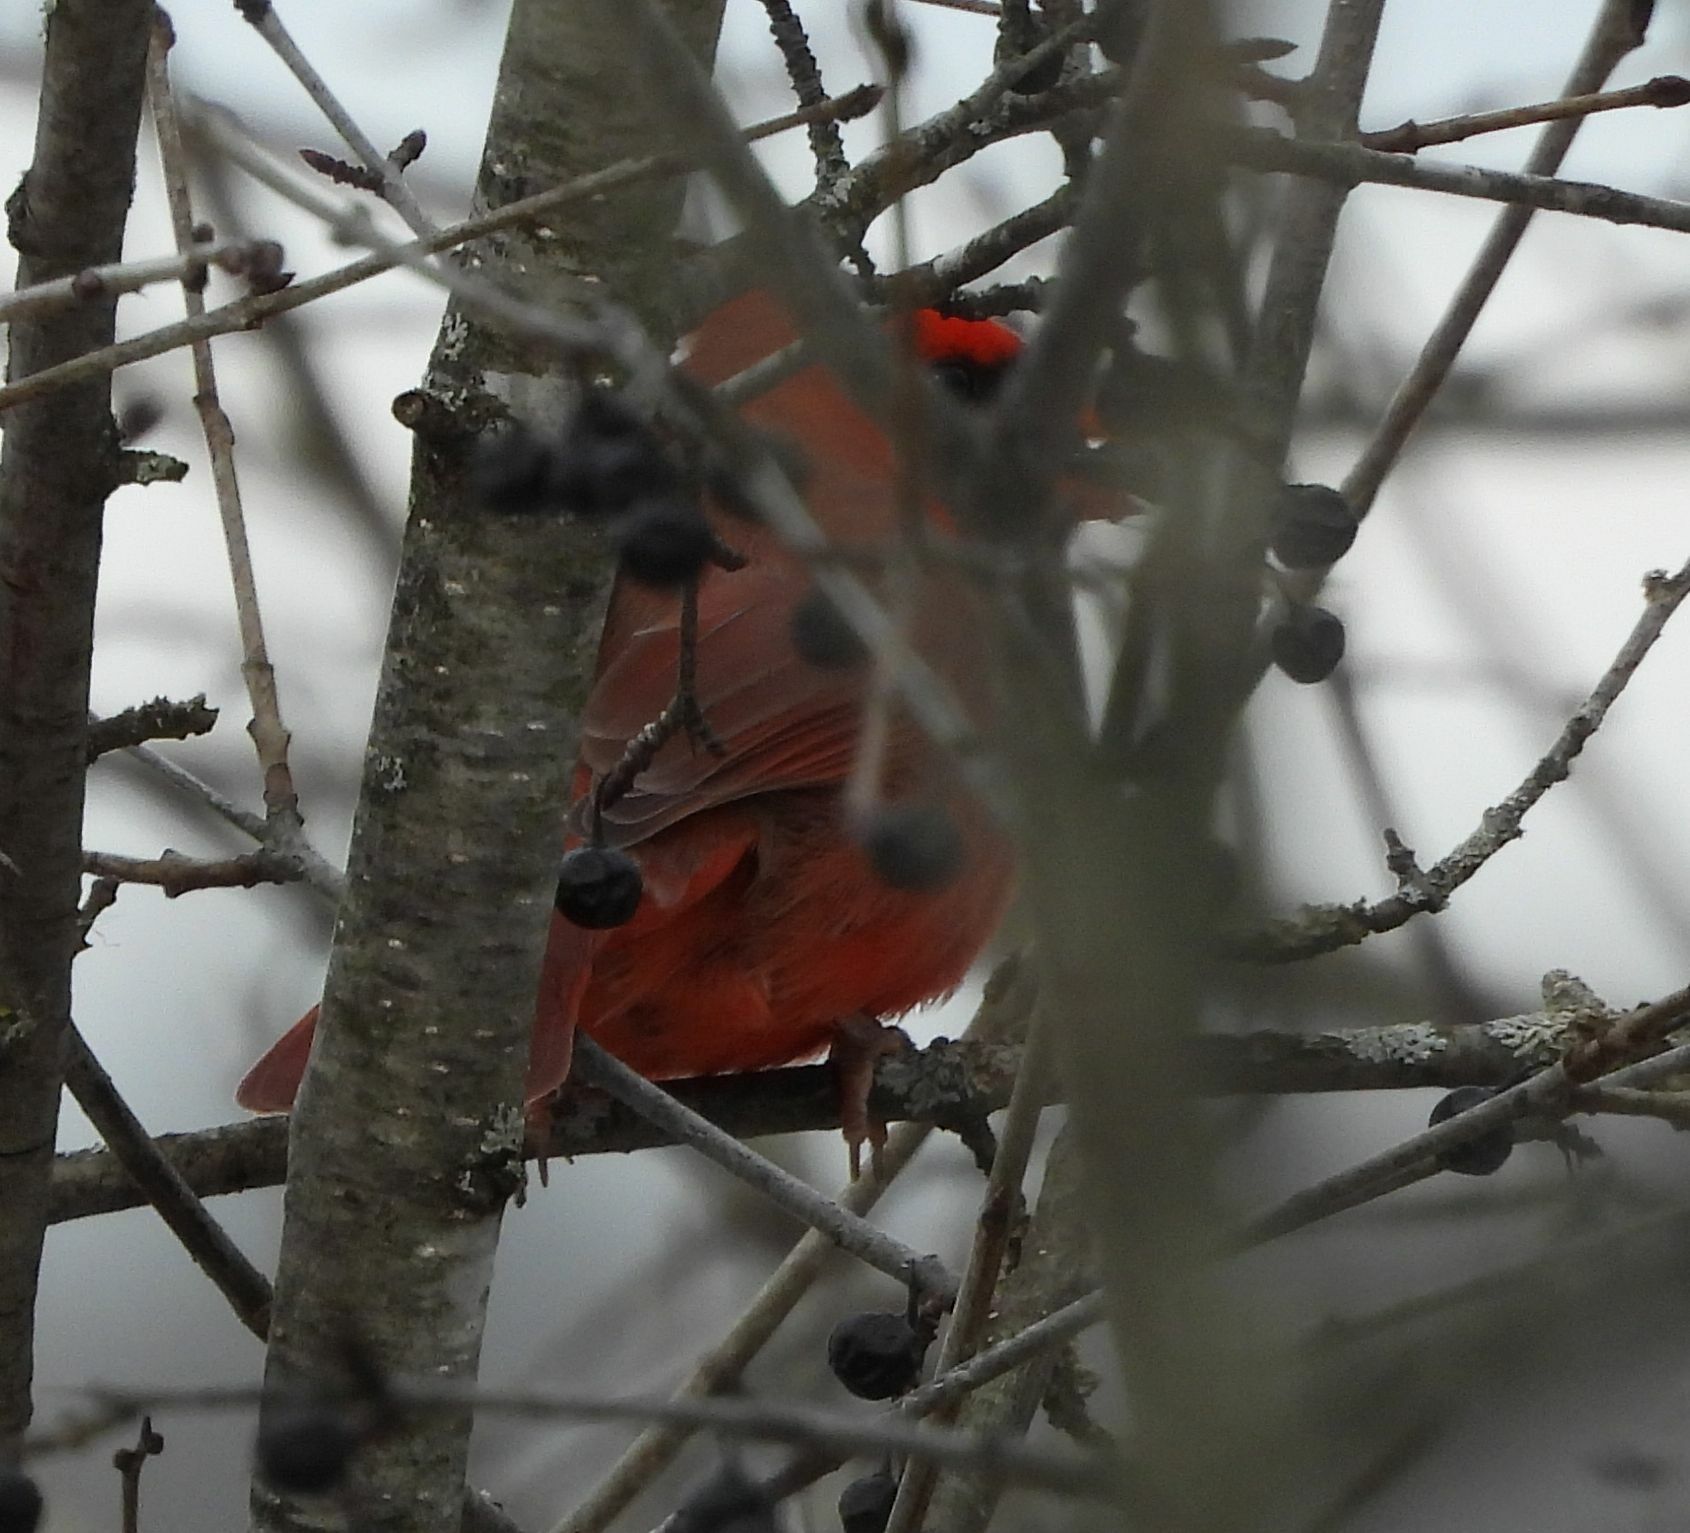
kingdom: Animalia
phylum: Chordata
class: Aves
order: Passeriformes
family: Cardinalidae
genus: Cardinalis
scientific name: Cardinalis cardinalis
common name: Northern cardinal
